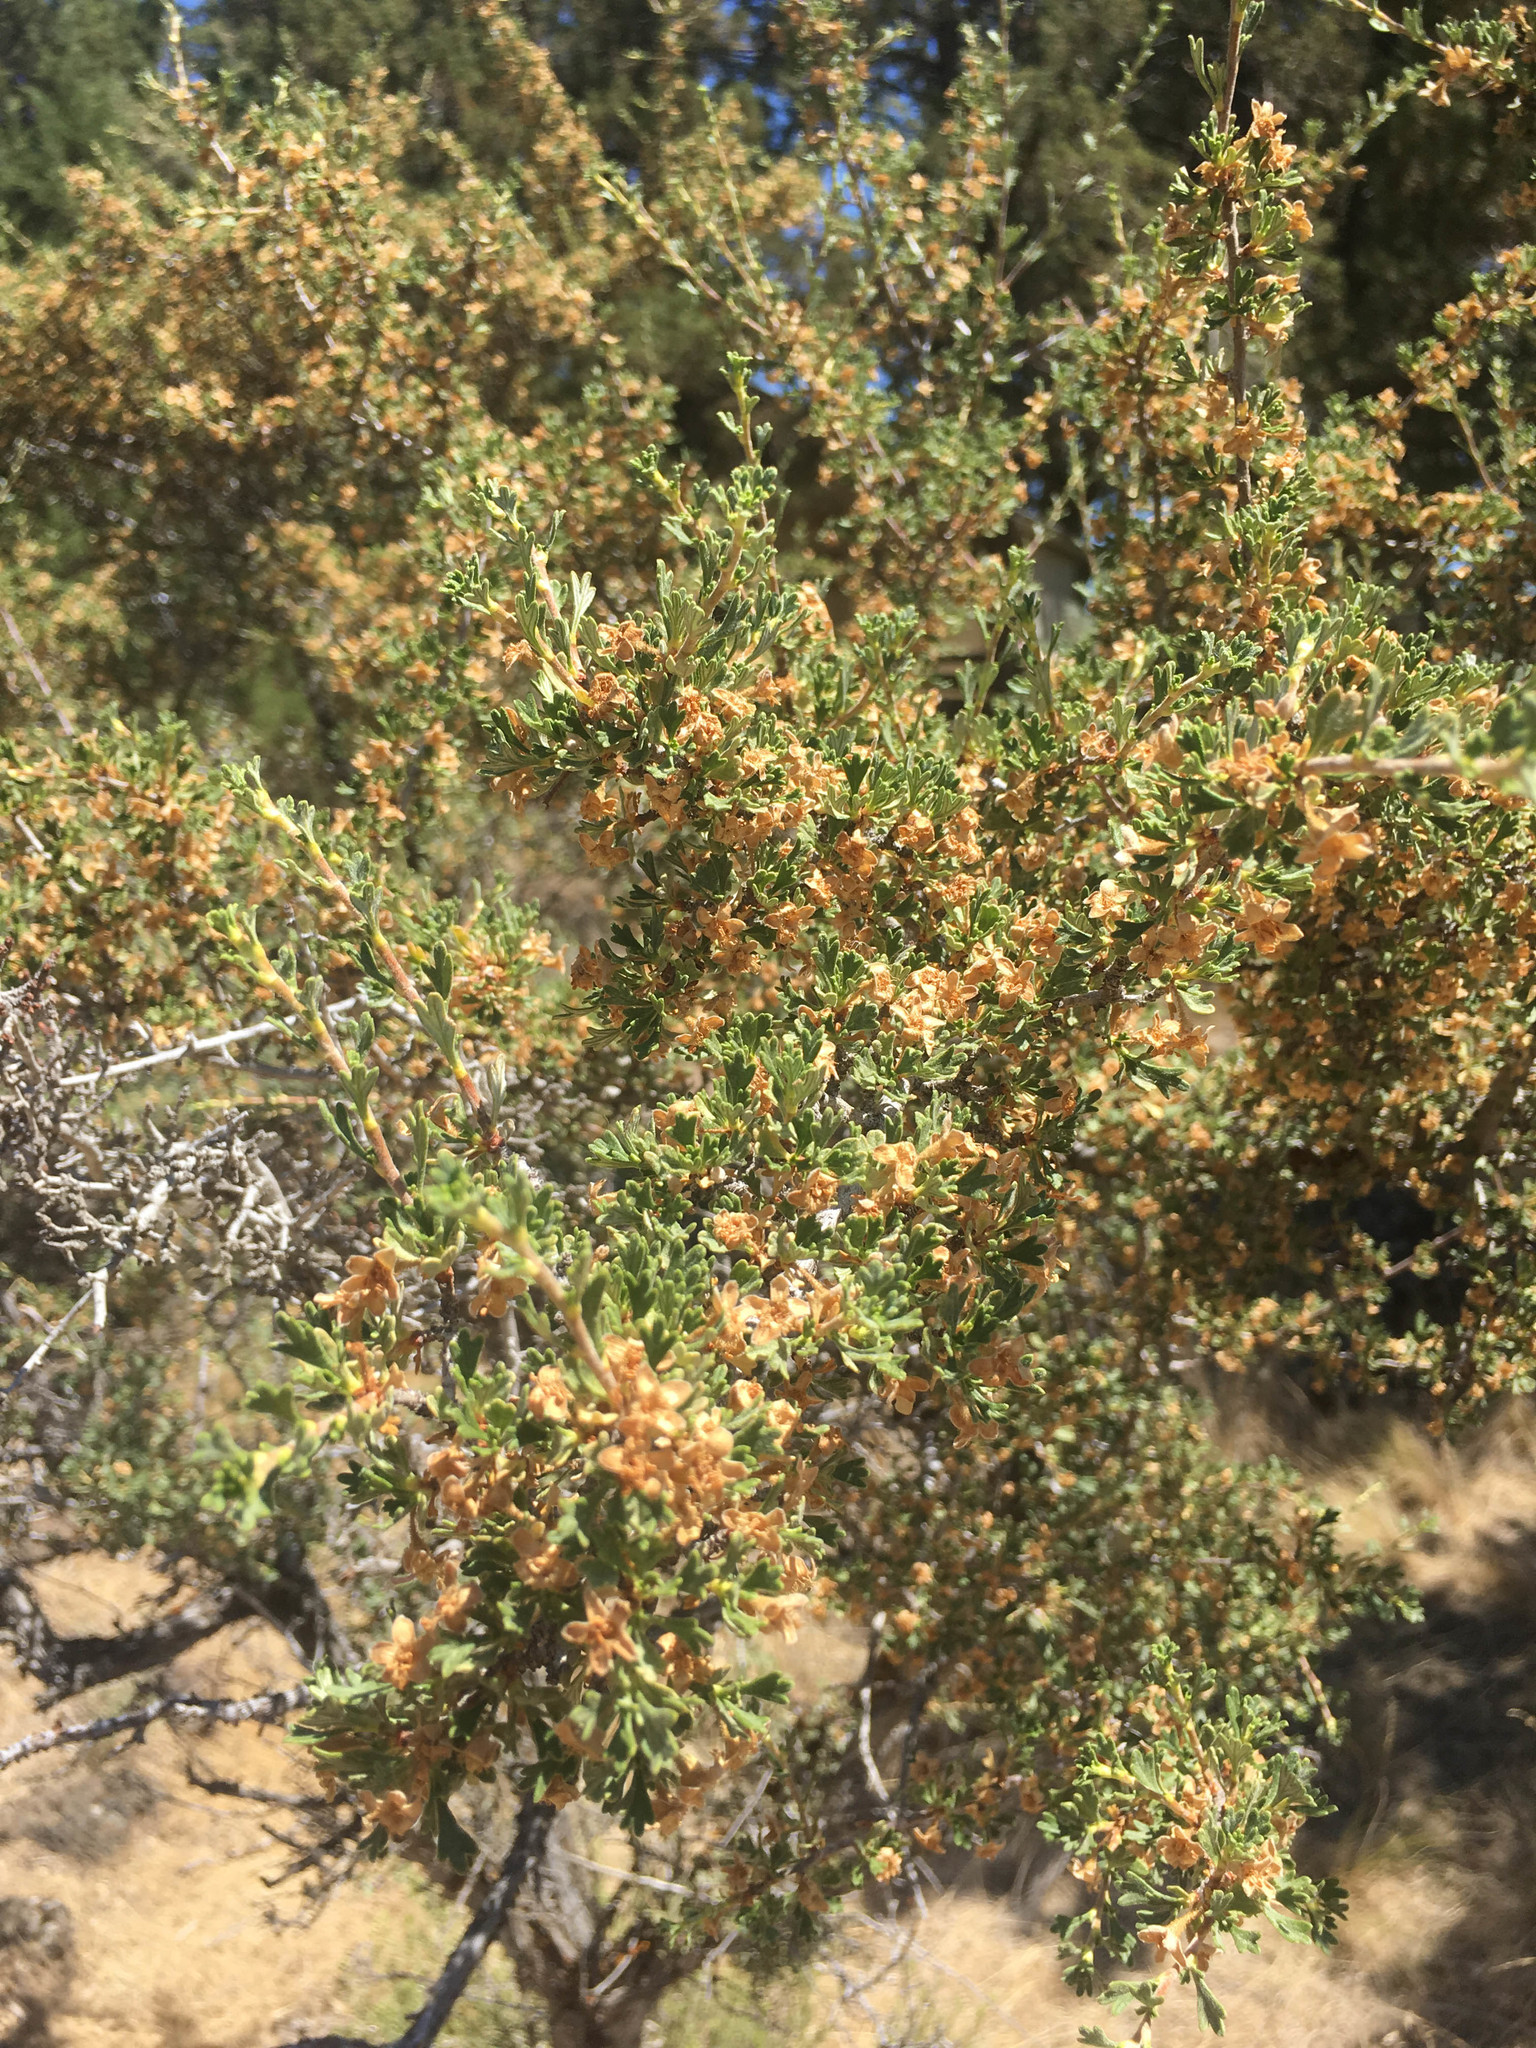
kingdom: Plantae
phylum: Tracheophyta
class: Magnoliopsida
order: Rosales
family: Rosaceae
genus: Purshia
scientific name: Purshia tridentata
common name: Antelope bitterbrush
